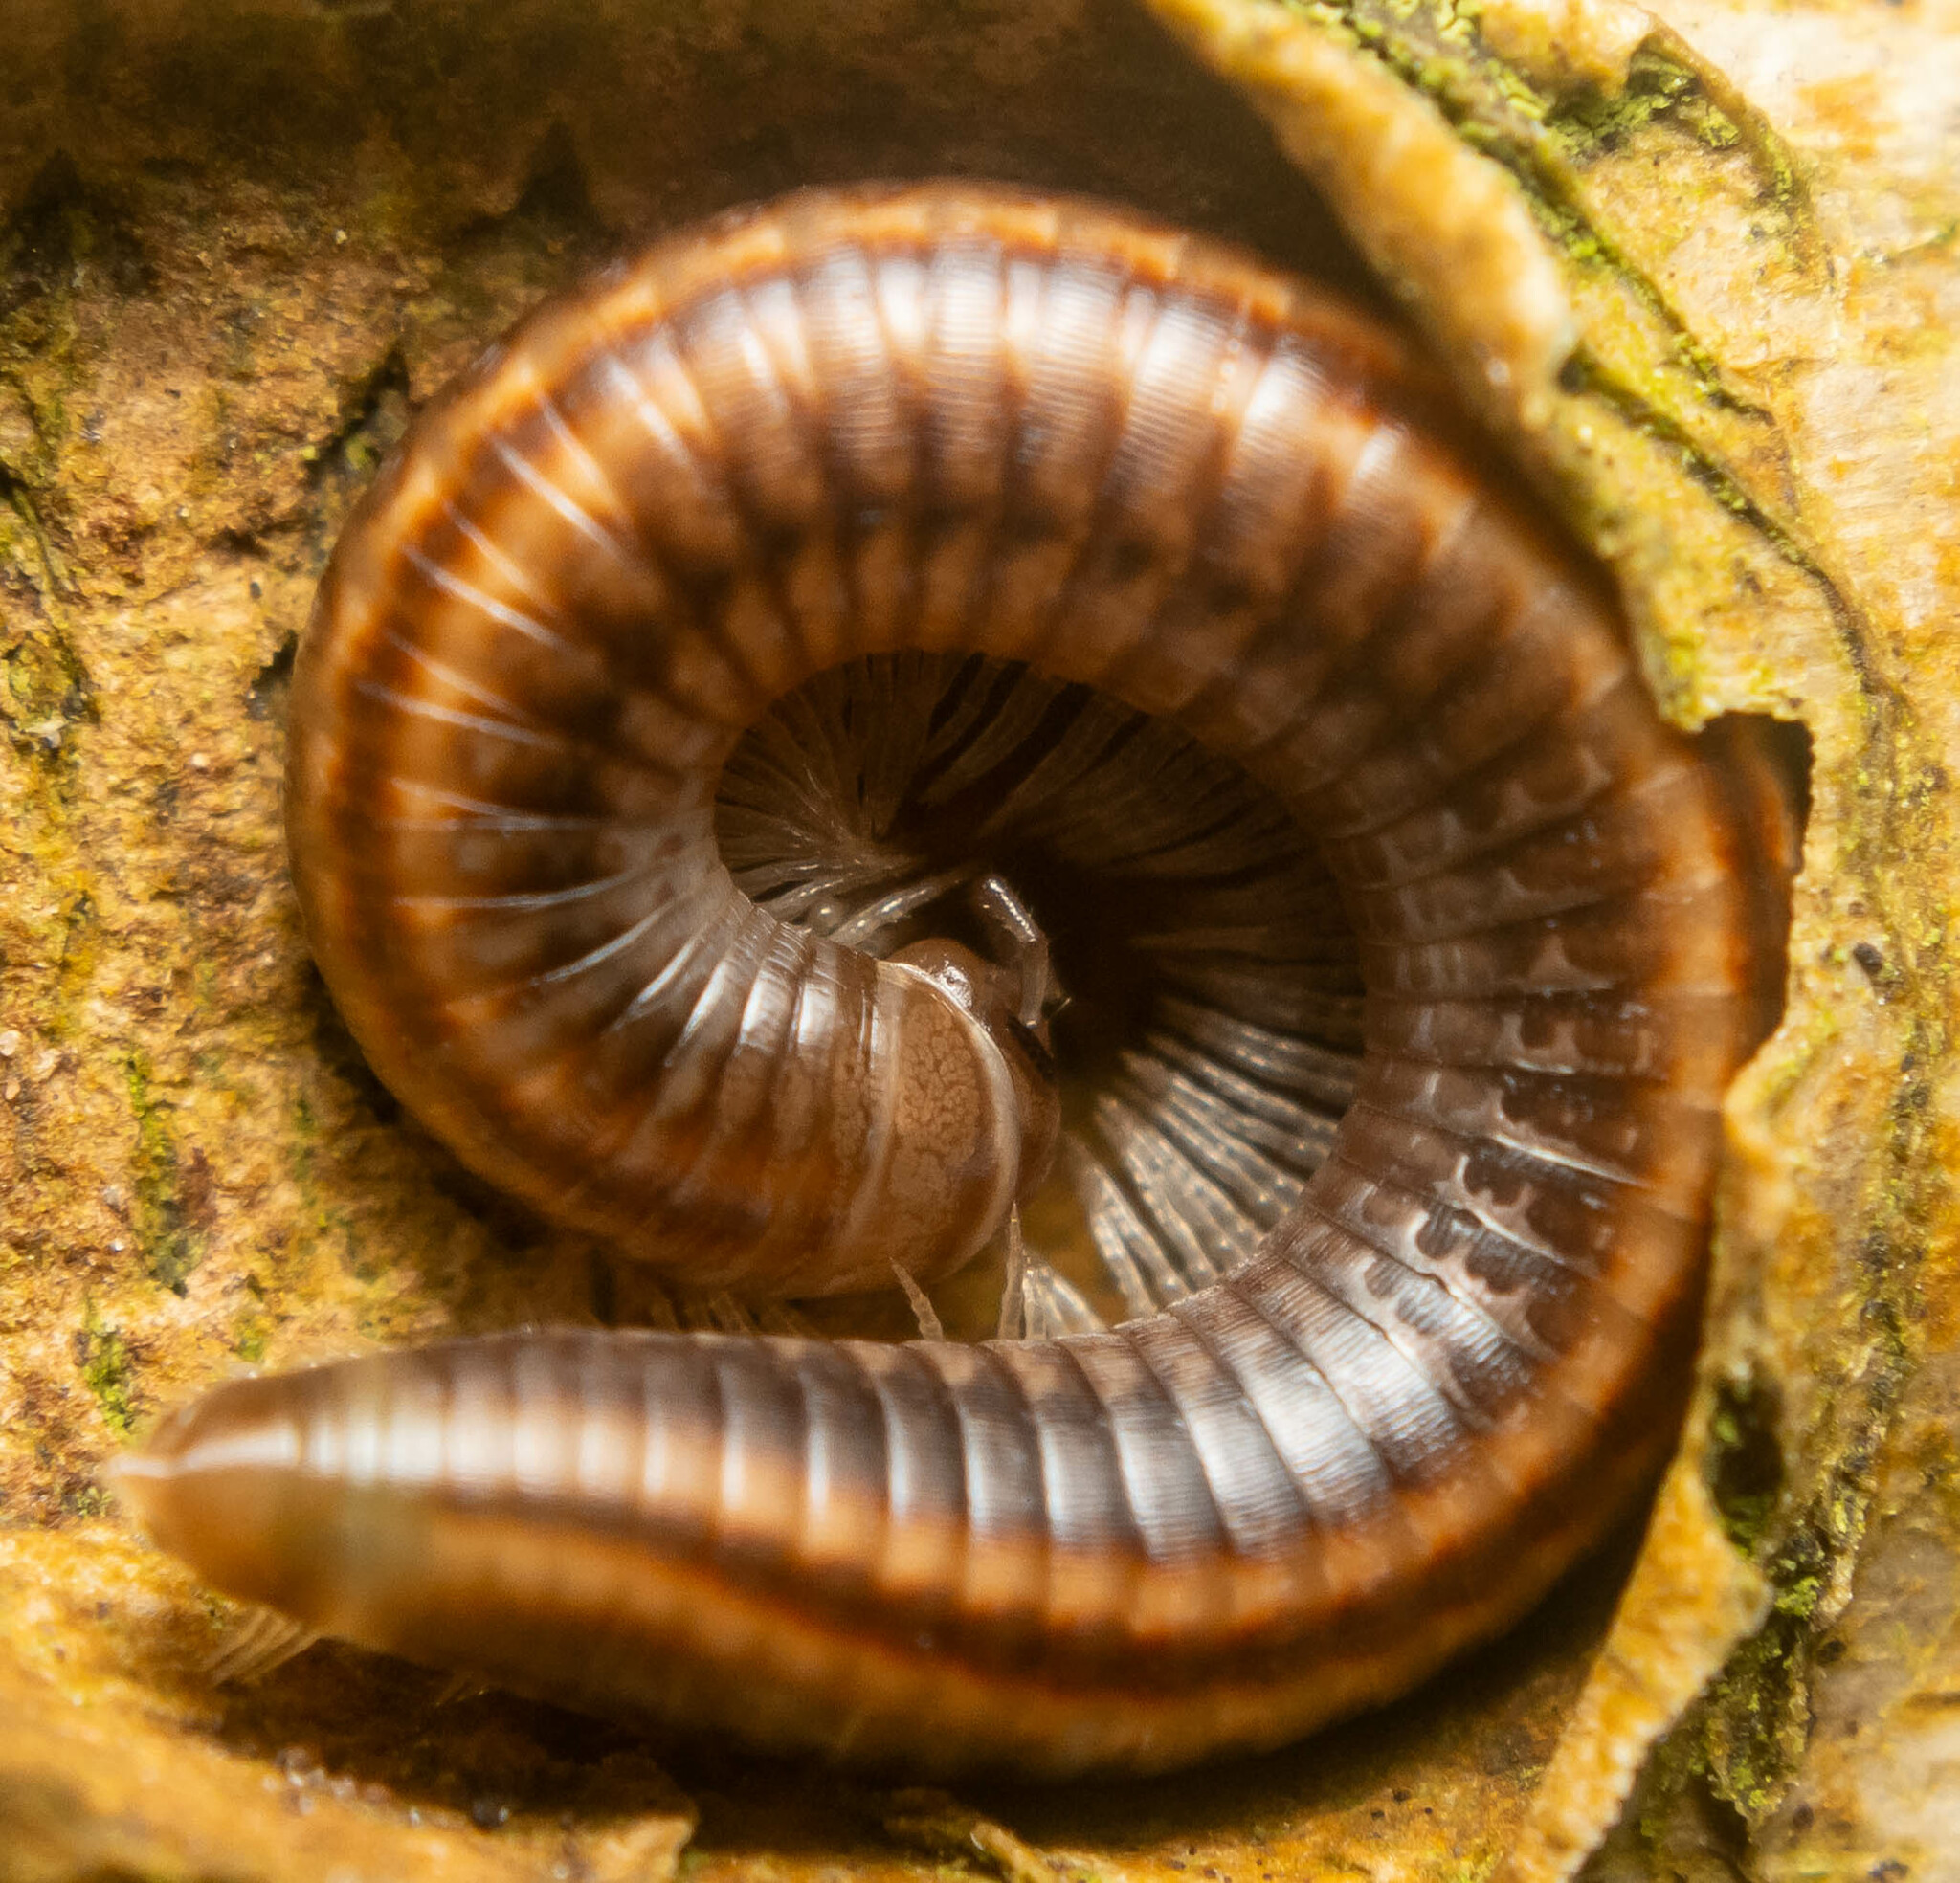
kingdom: Animalia
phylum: Arthropoda
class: Diplopoda
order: Julida
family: Julidae
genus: Ommatoiulus
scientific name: Ommatoiulus sabulosus
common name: Striped millipede
